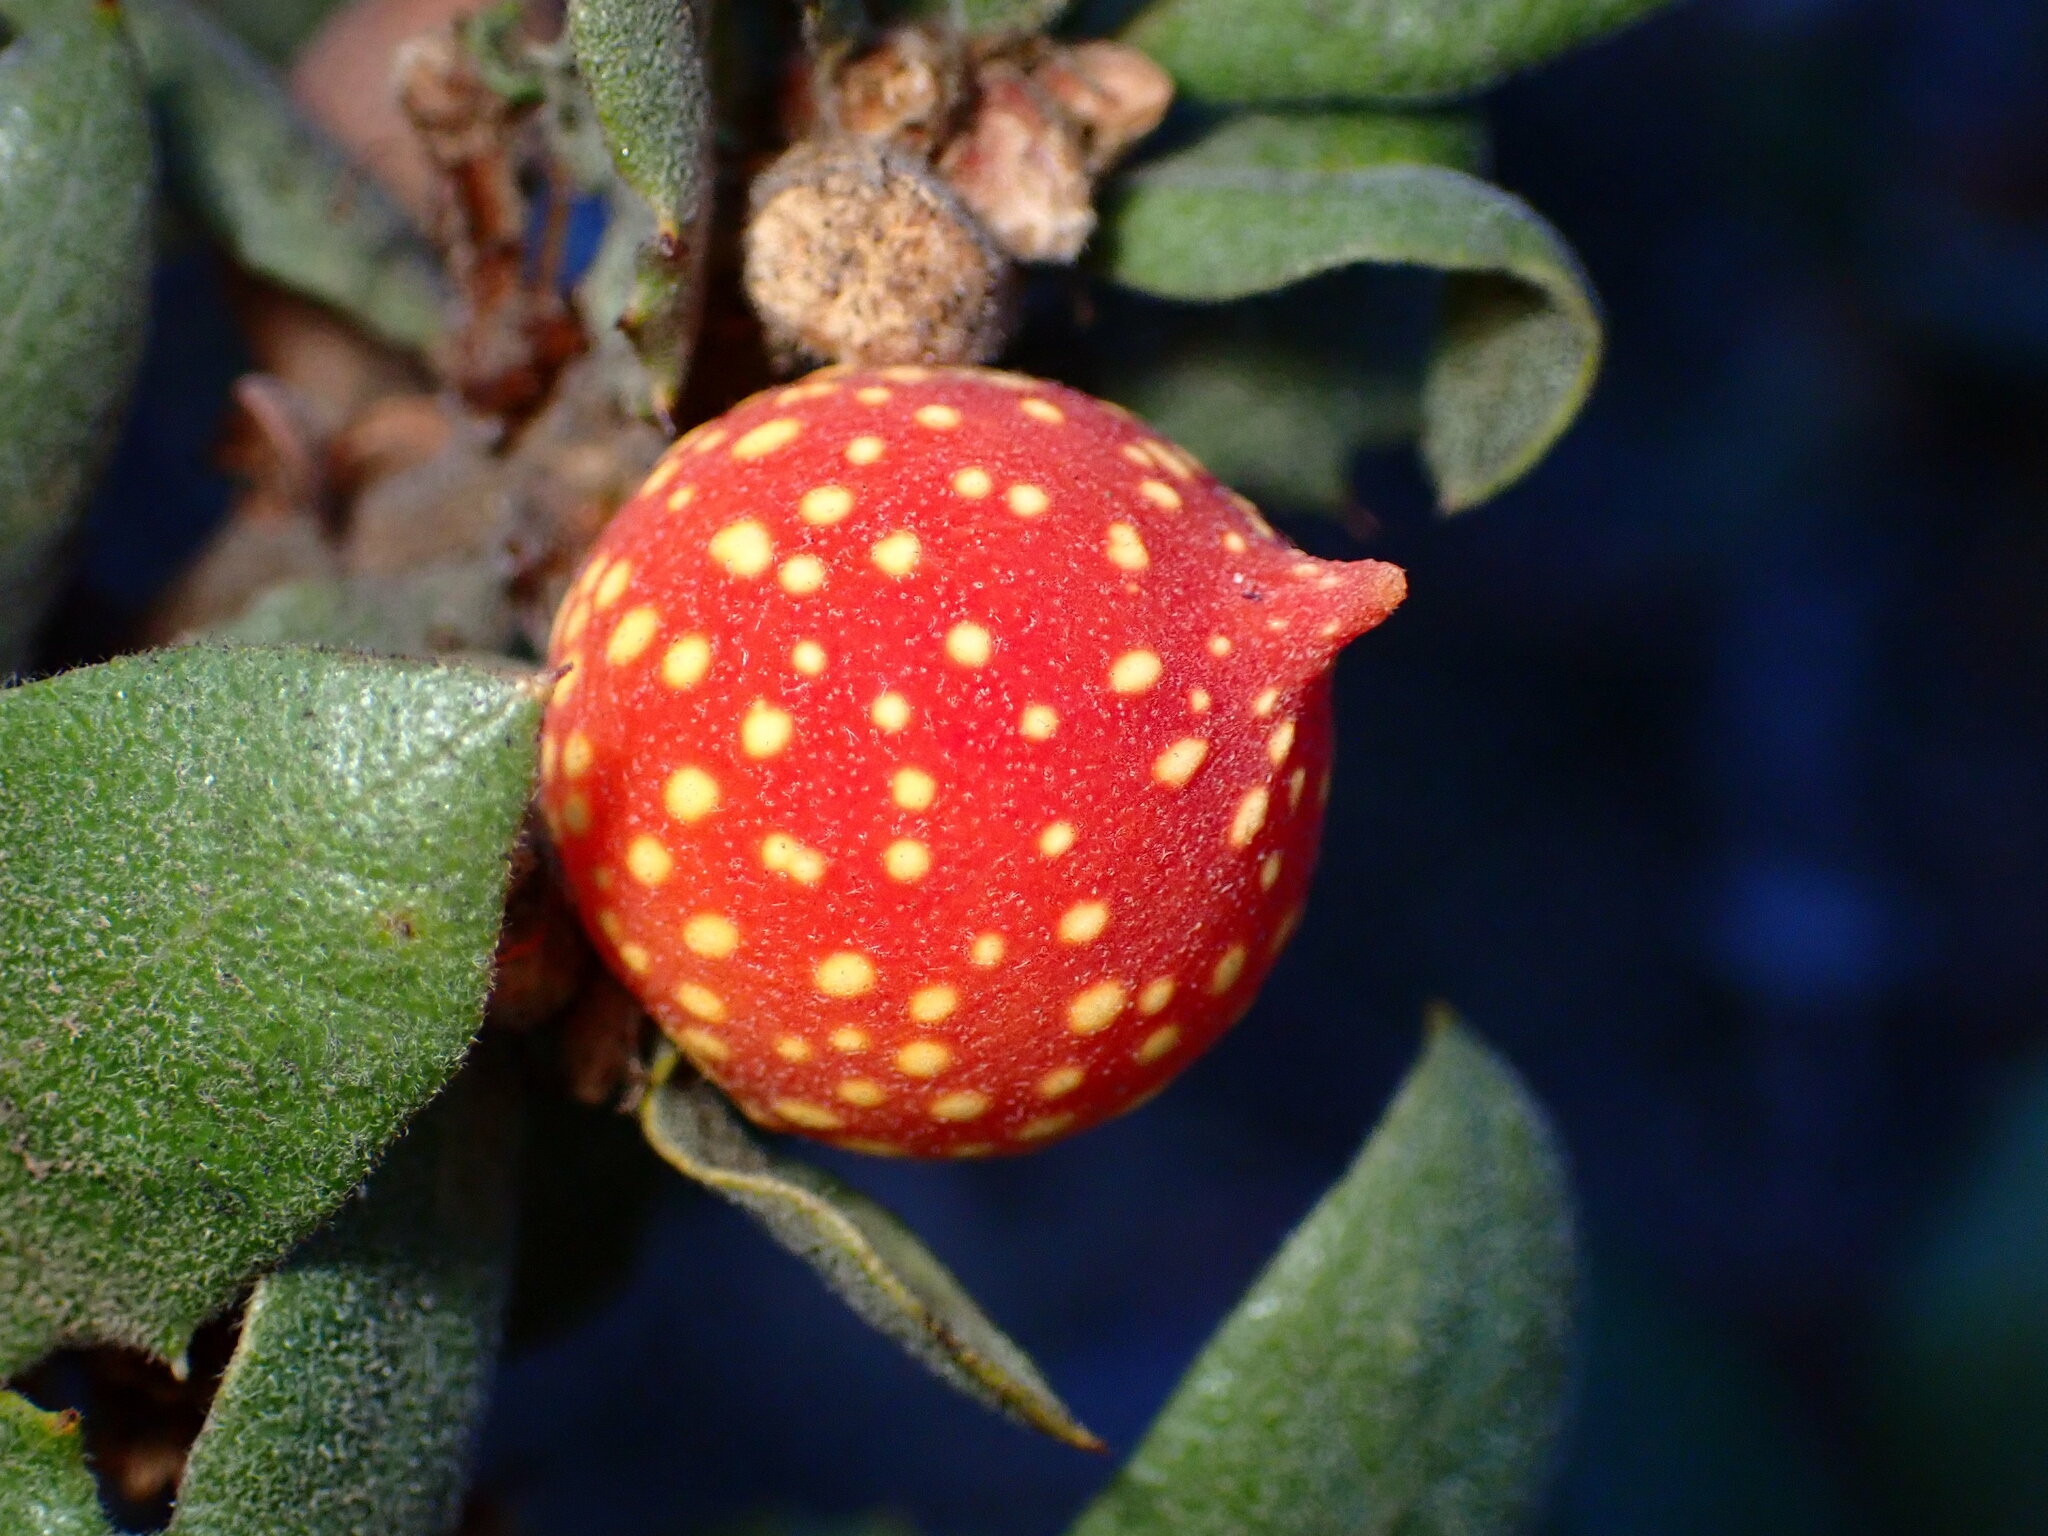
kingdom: Animalia
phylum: Arthropoda
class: Insecta
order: Hymenoptera
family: Cynipidae
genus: Burnettweldia
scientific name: Burnettweldia
